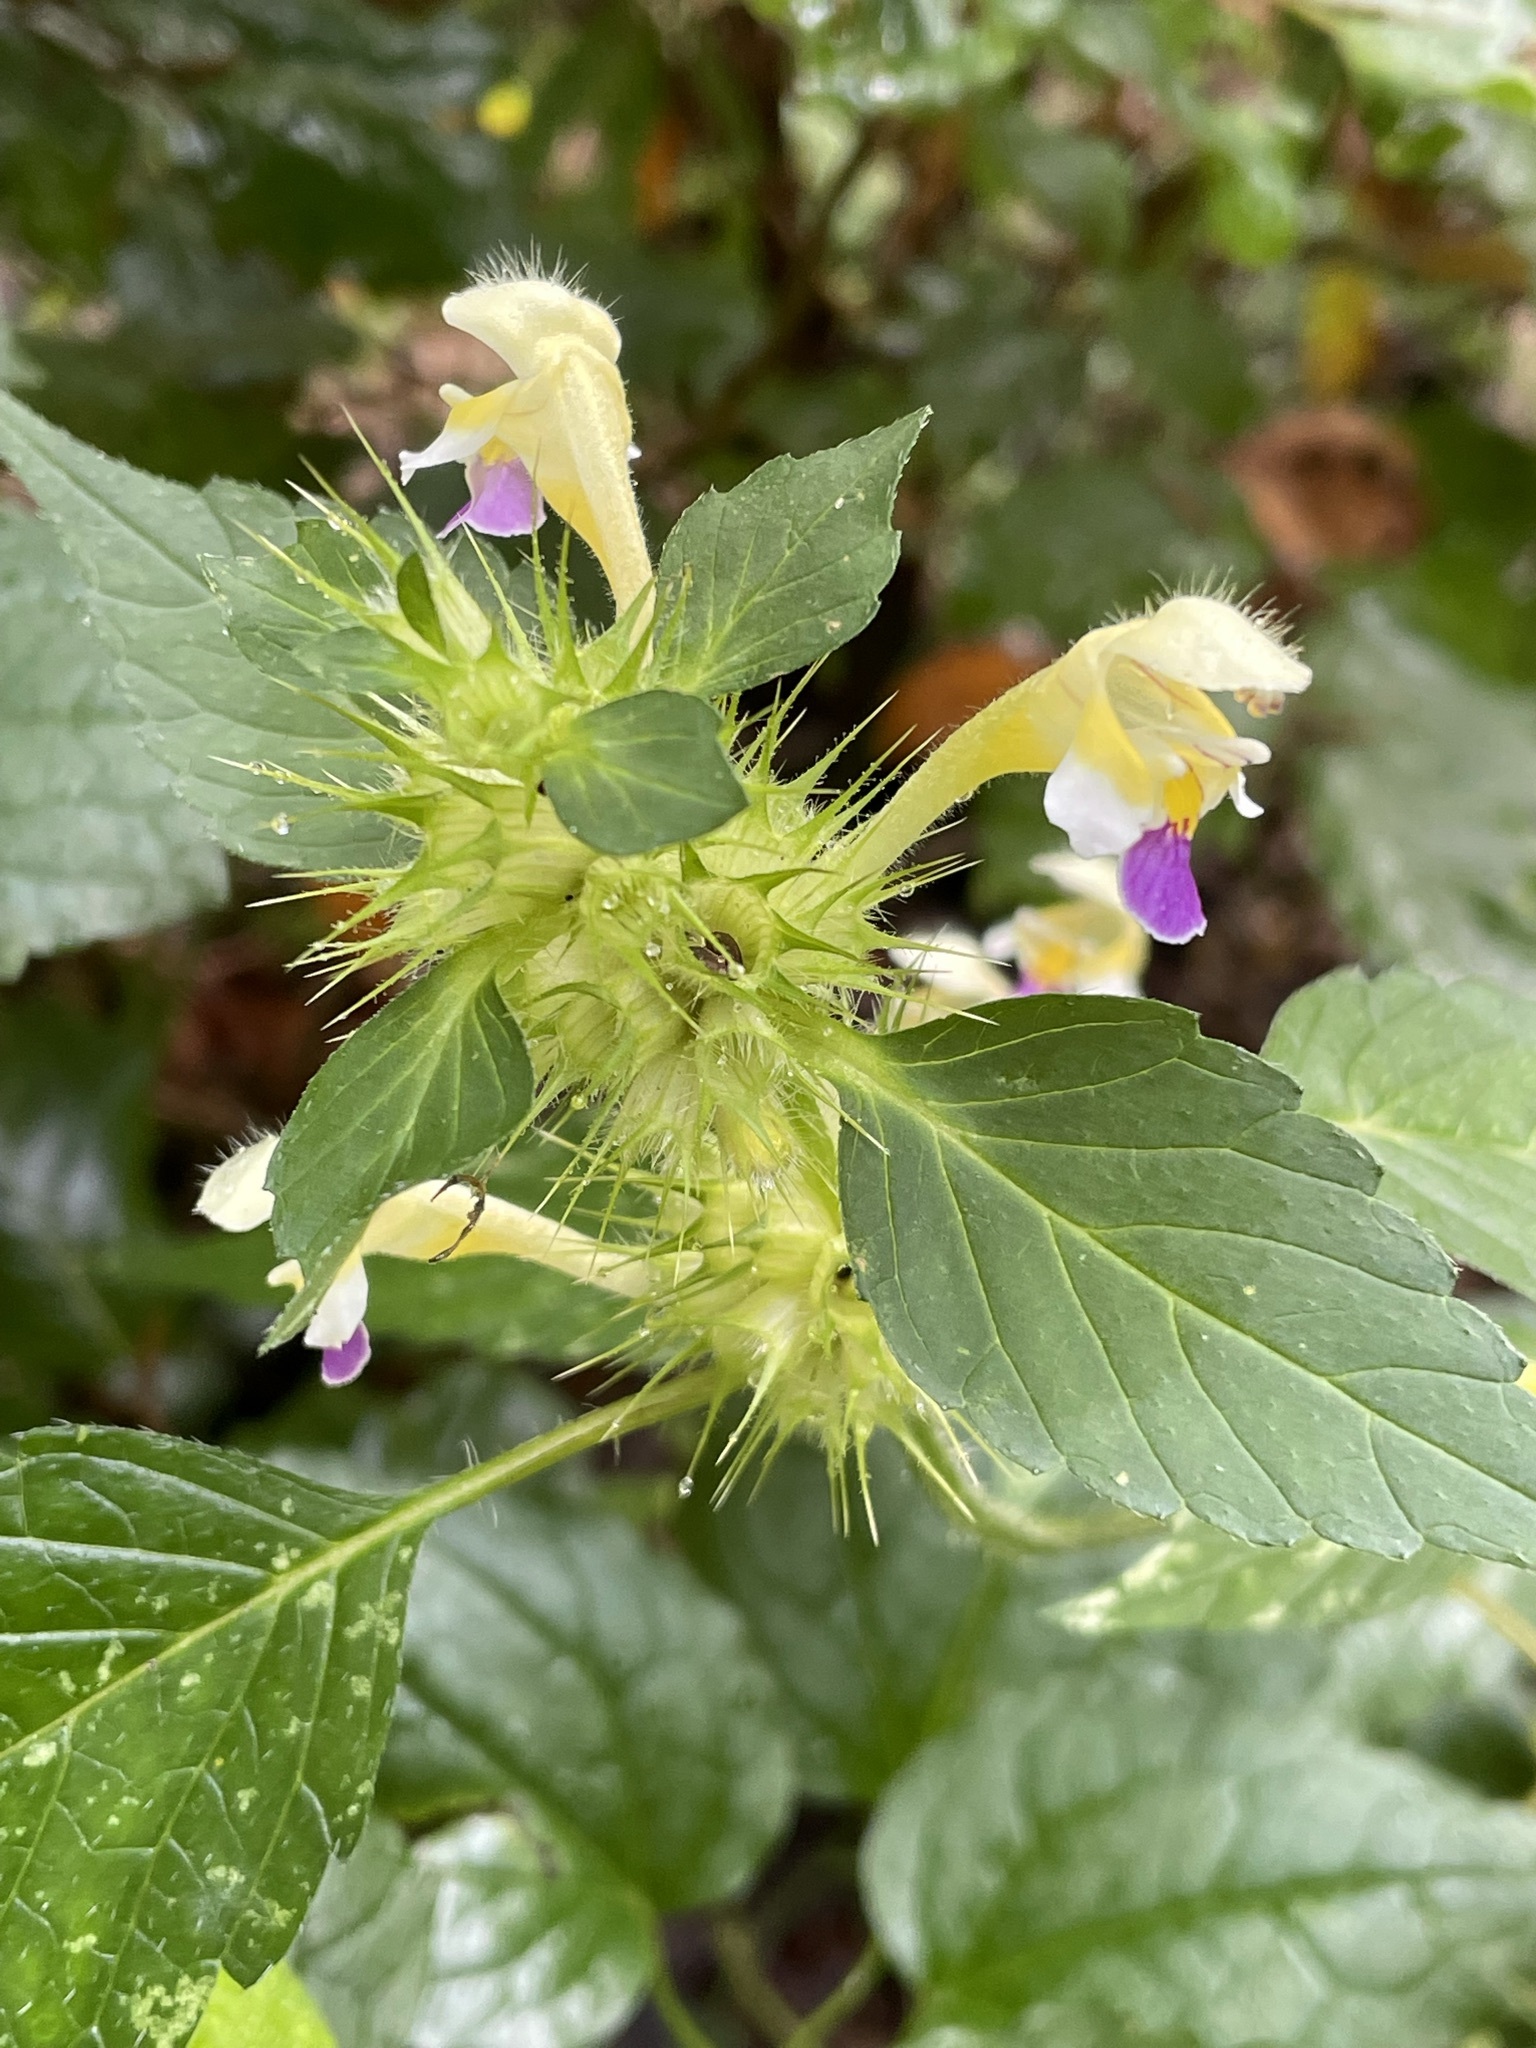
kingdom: Plantae
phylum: Tracheophyta
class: Magnoliopsida
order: Lamiales
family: Lamiaceae
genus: Galeopsis
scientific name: Galeopsis speciosa
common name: Large-flowered hemp-nettle
